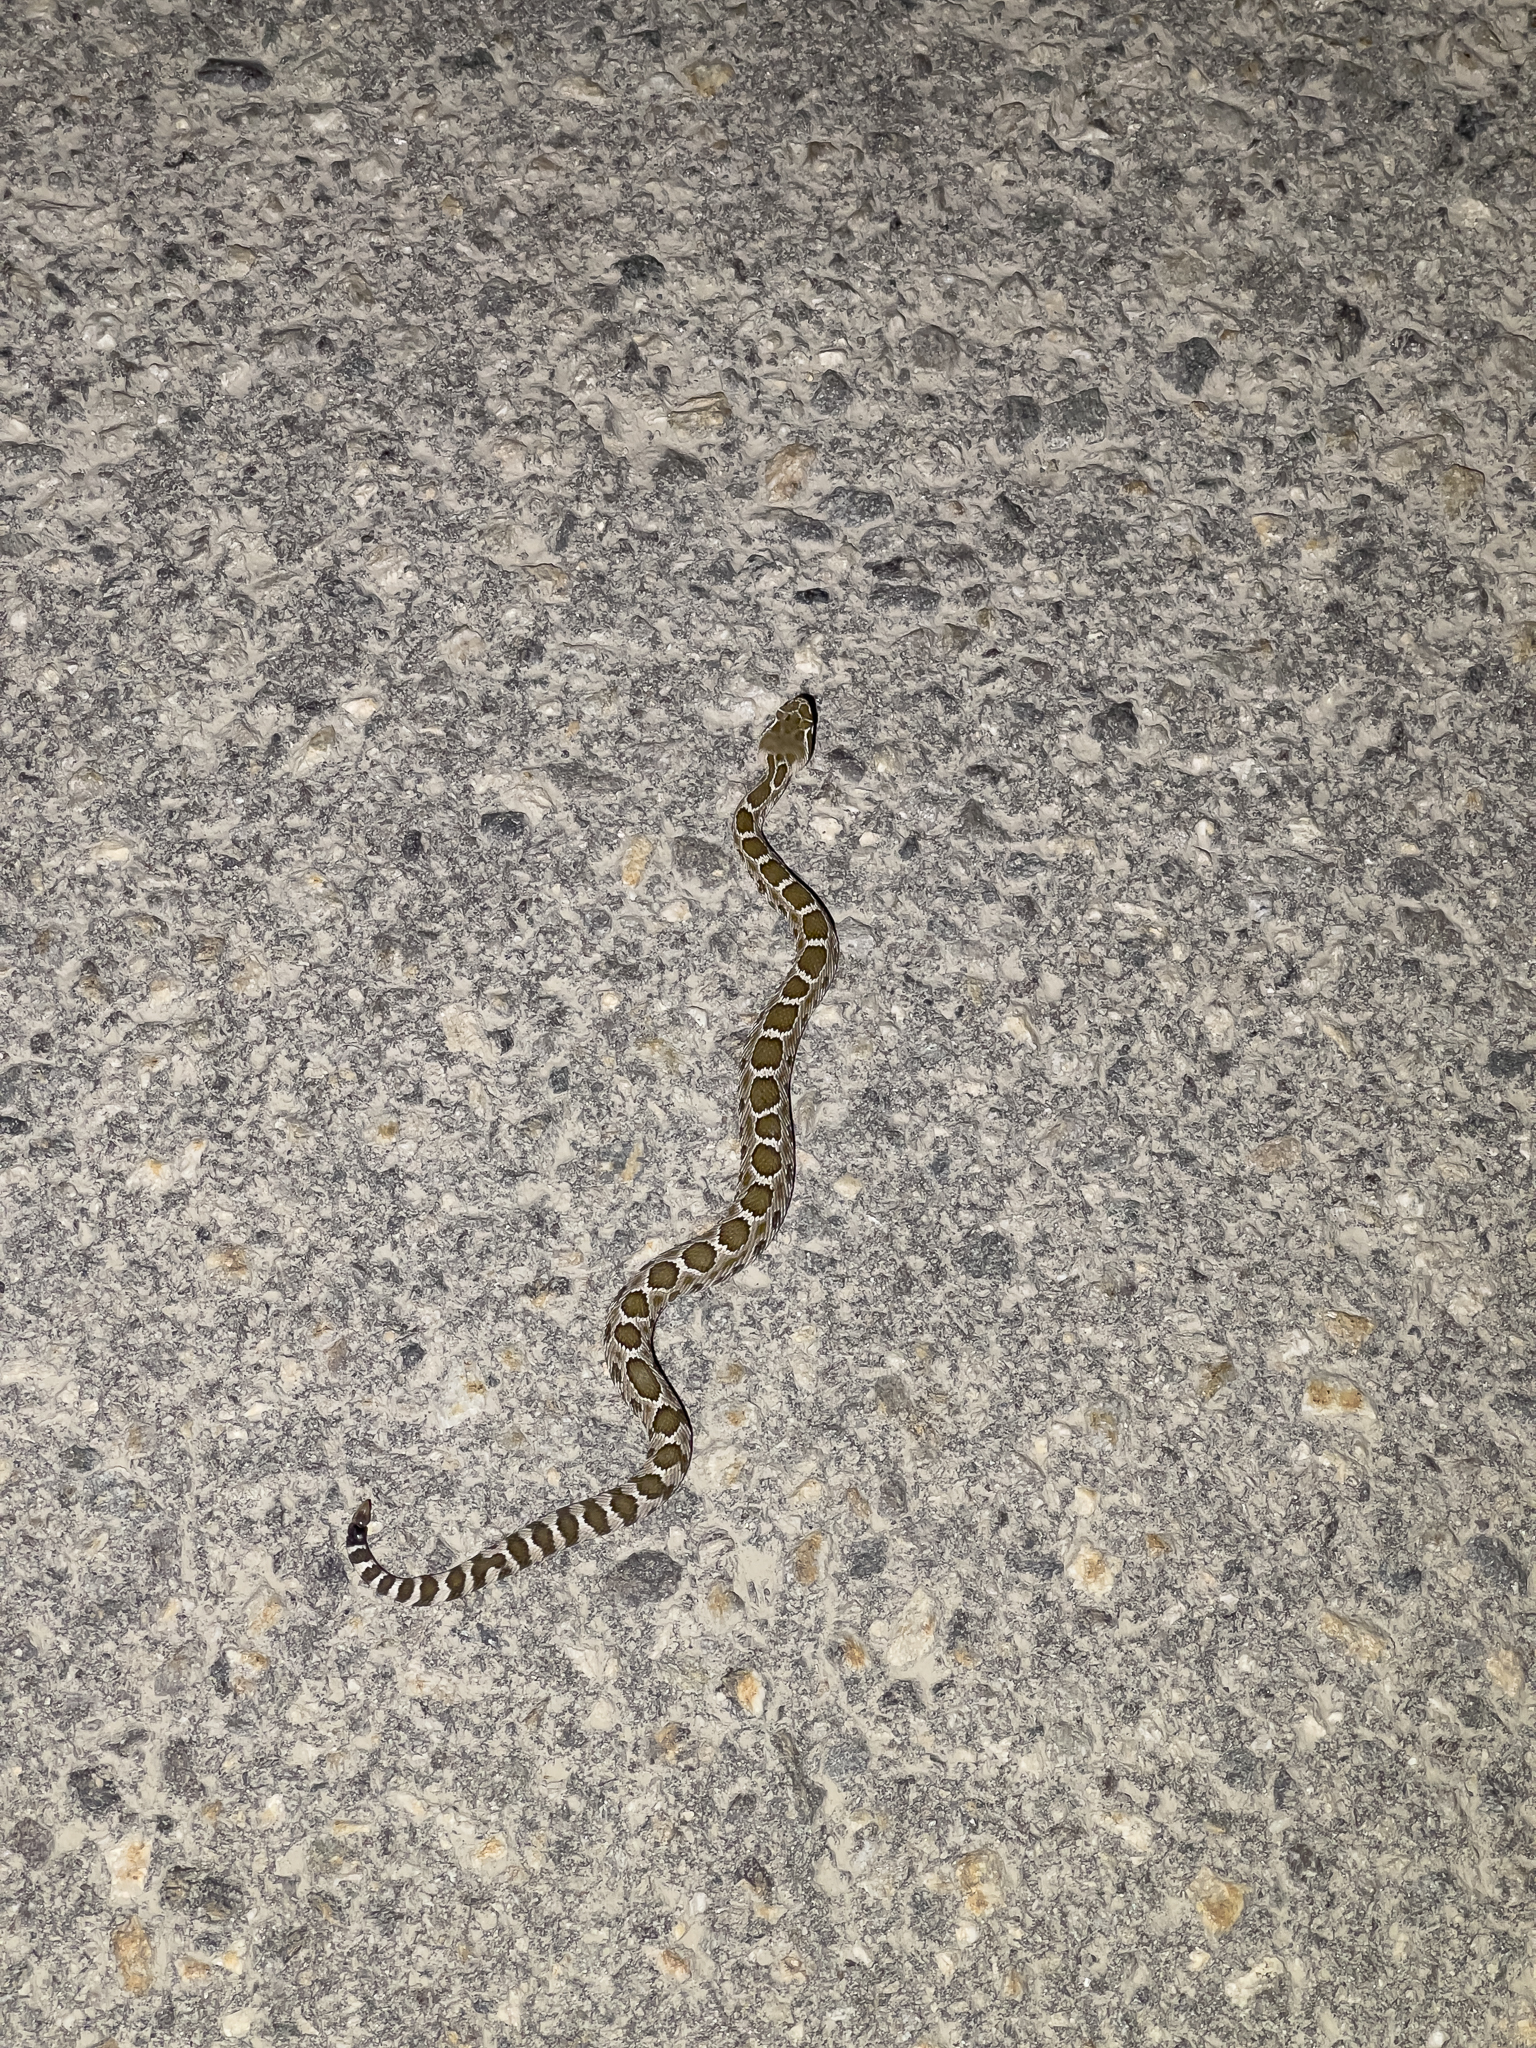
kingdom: Animalia
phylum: Chordata
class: Squamata
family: Viperidae
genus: Crotalus
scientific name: Crotalus oreganus
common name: Abyssus
